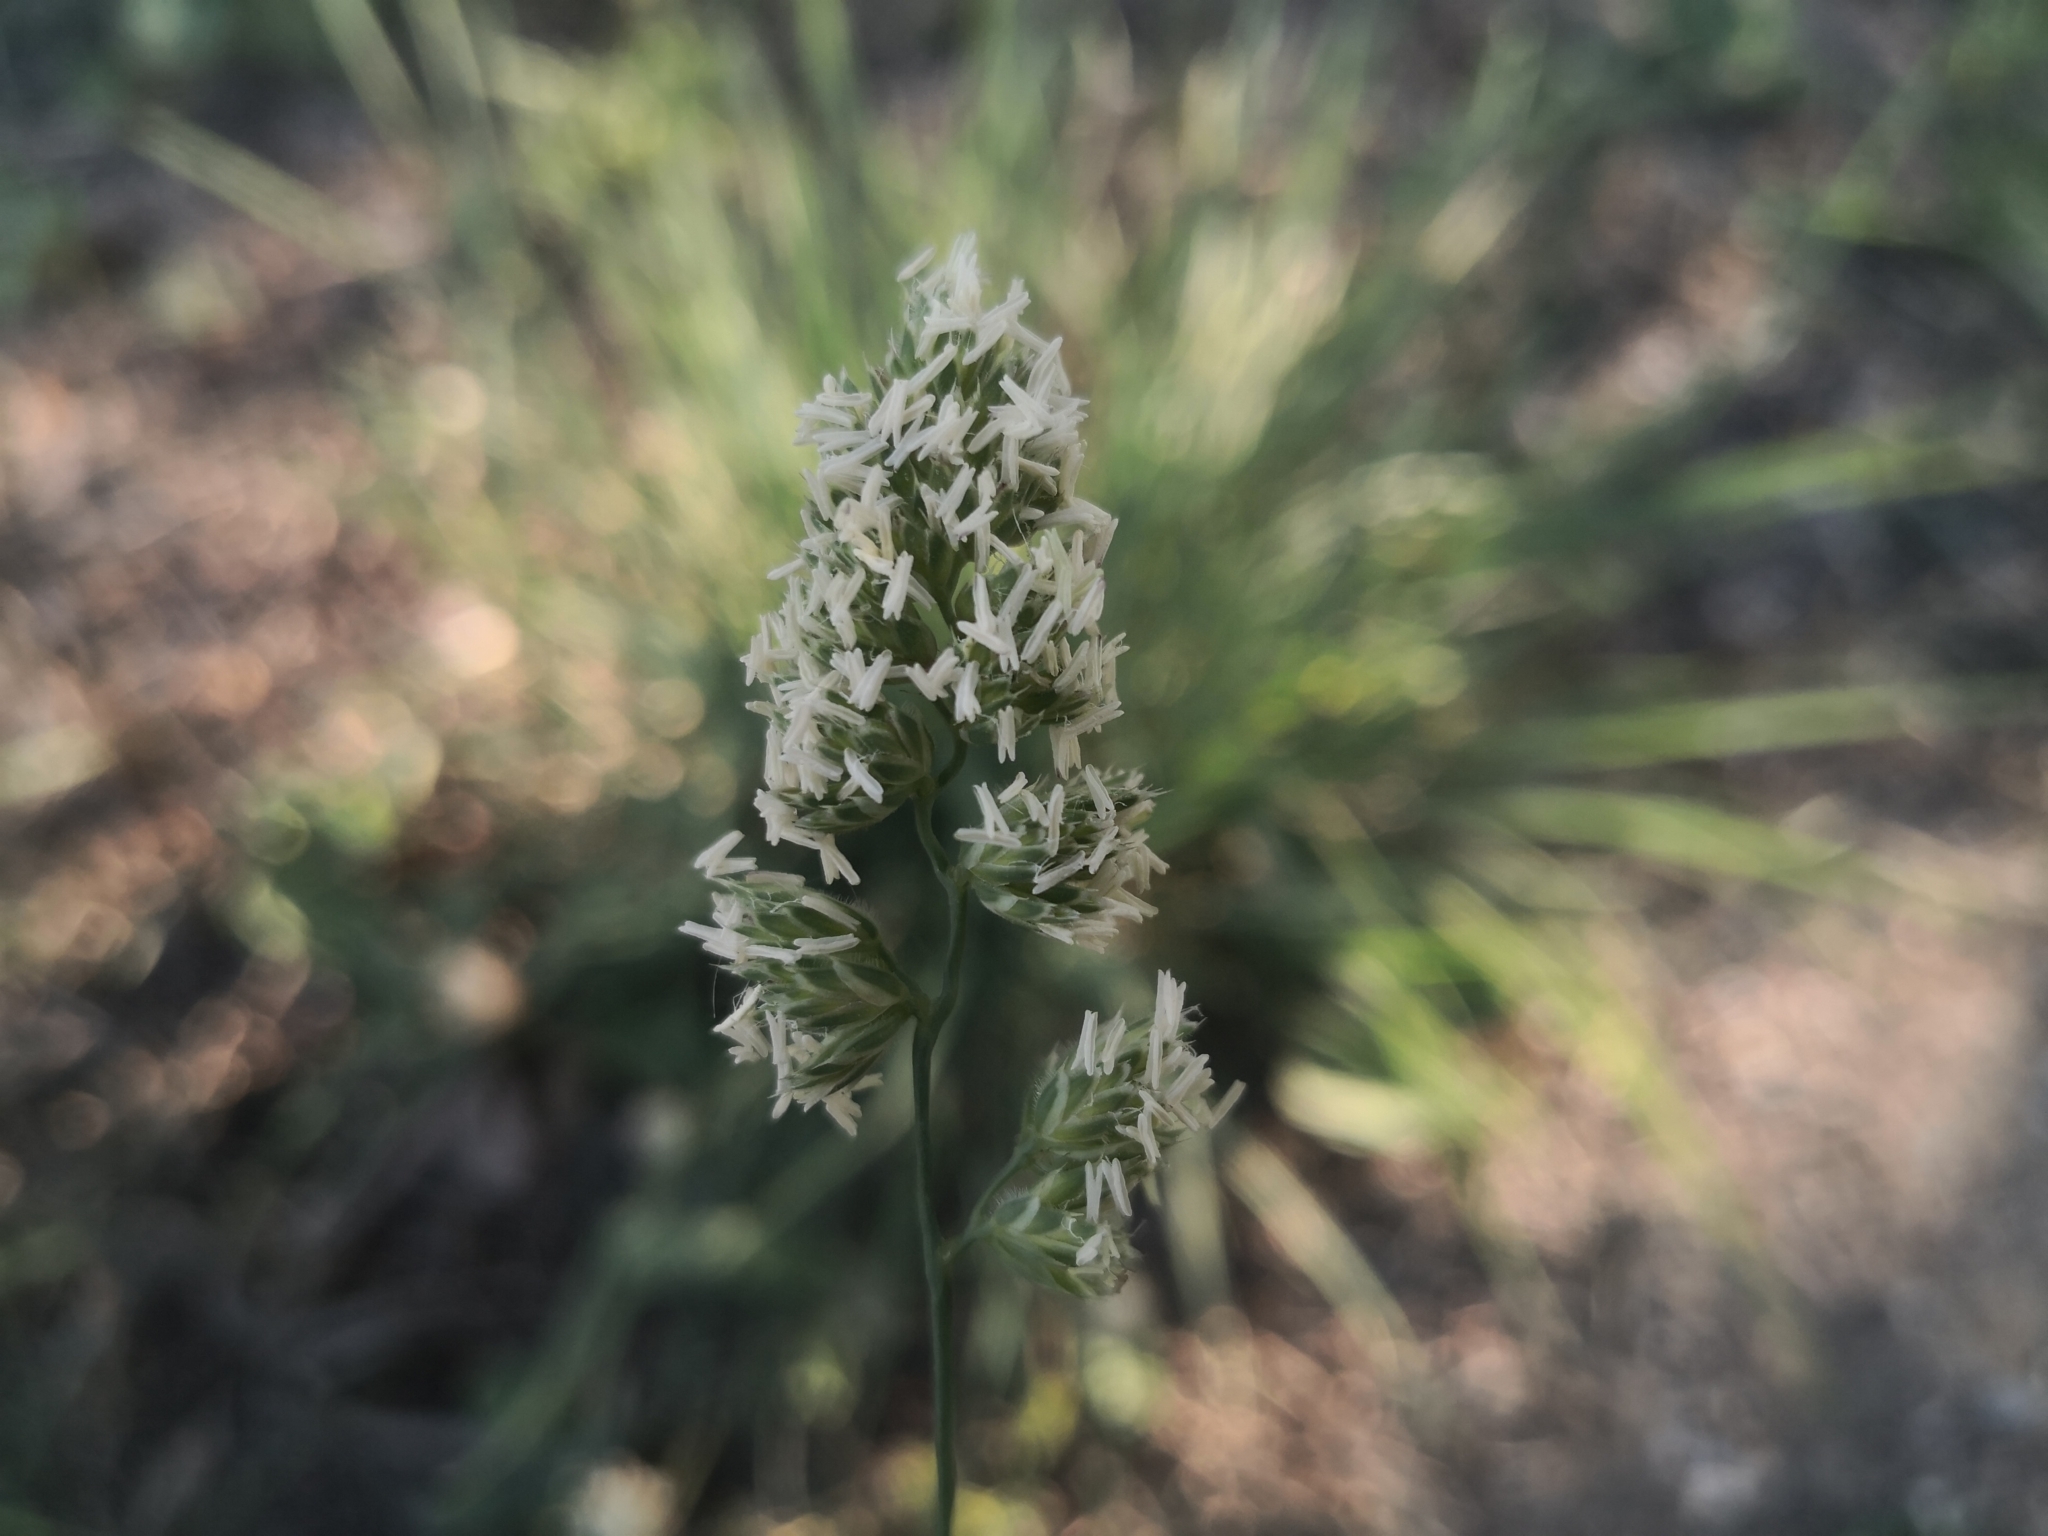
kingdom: Plantae
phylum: Tracheophyta
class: Liliopsida
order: Poales
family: Poaceae
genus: Dactylis
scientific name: Dactylis glomerata
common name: Orchardgrass
